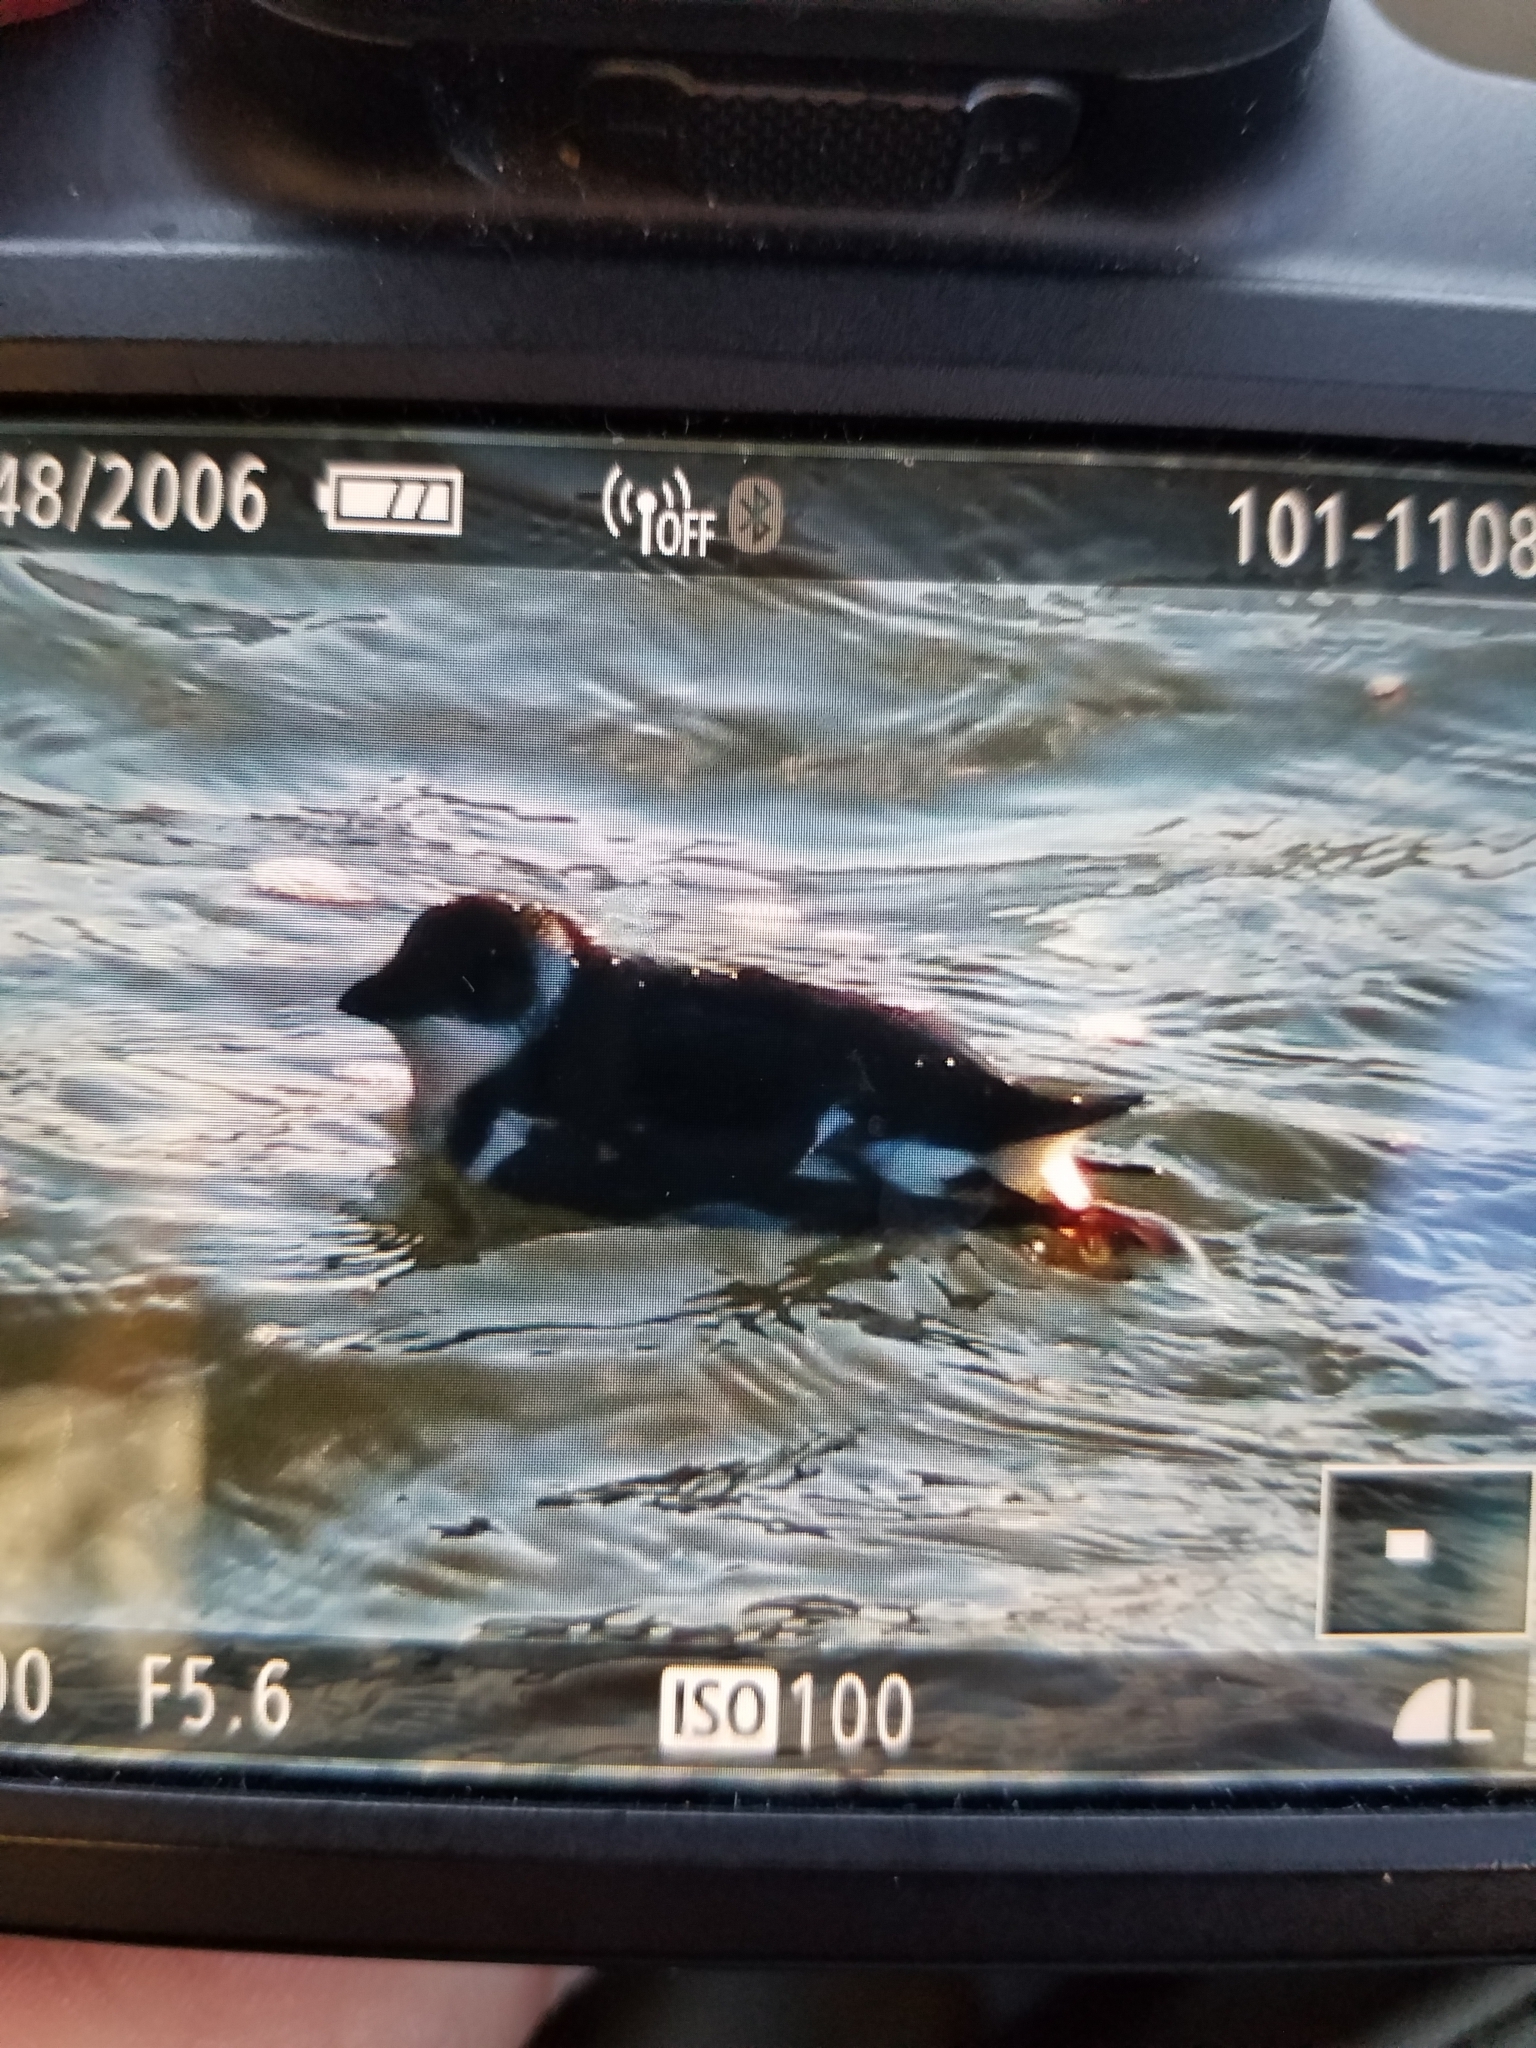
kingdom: Animalia
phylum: Chordata
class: Aves
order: Charadriiformes
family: Alcidae
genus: Alle
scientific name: Alle alle
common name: Little auk
